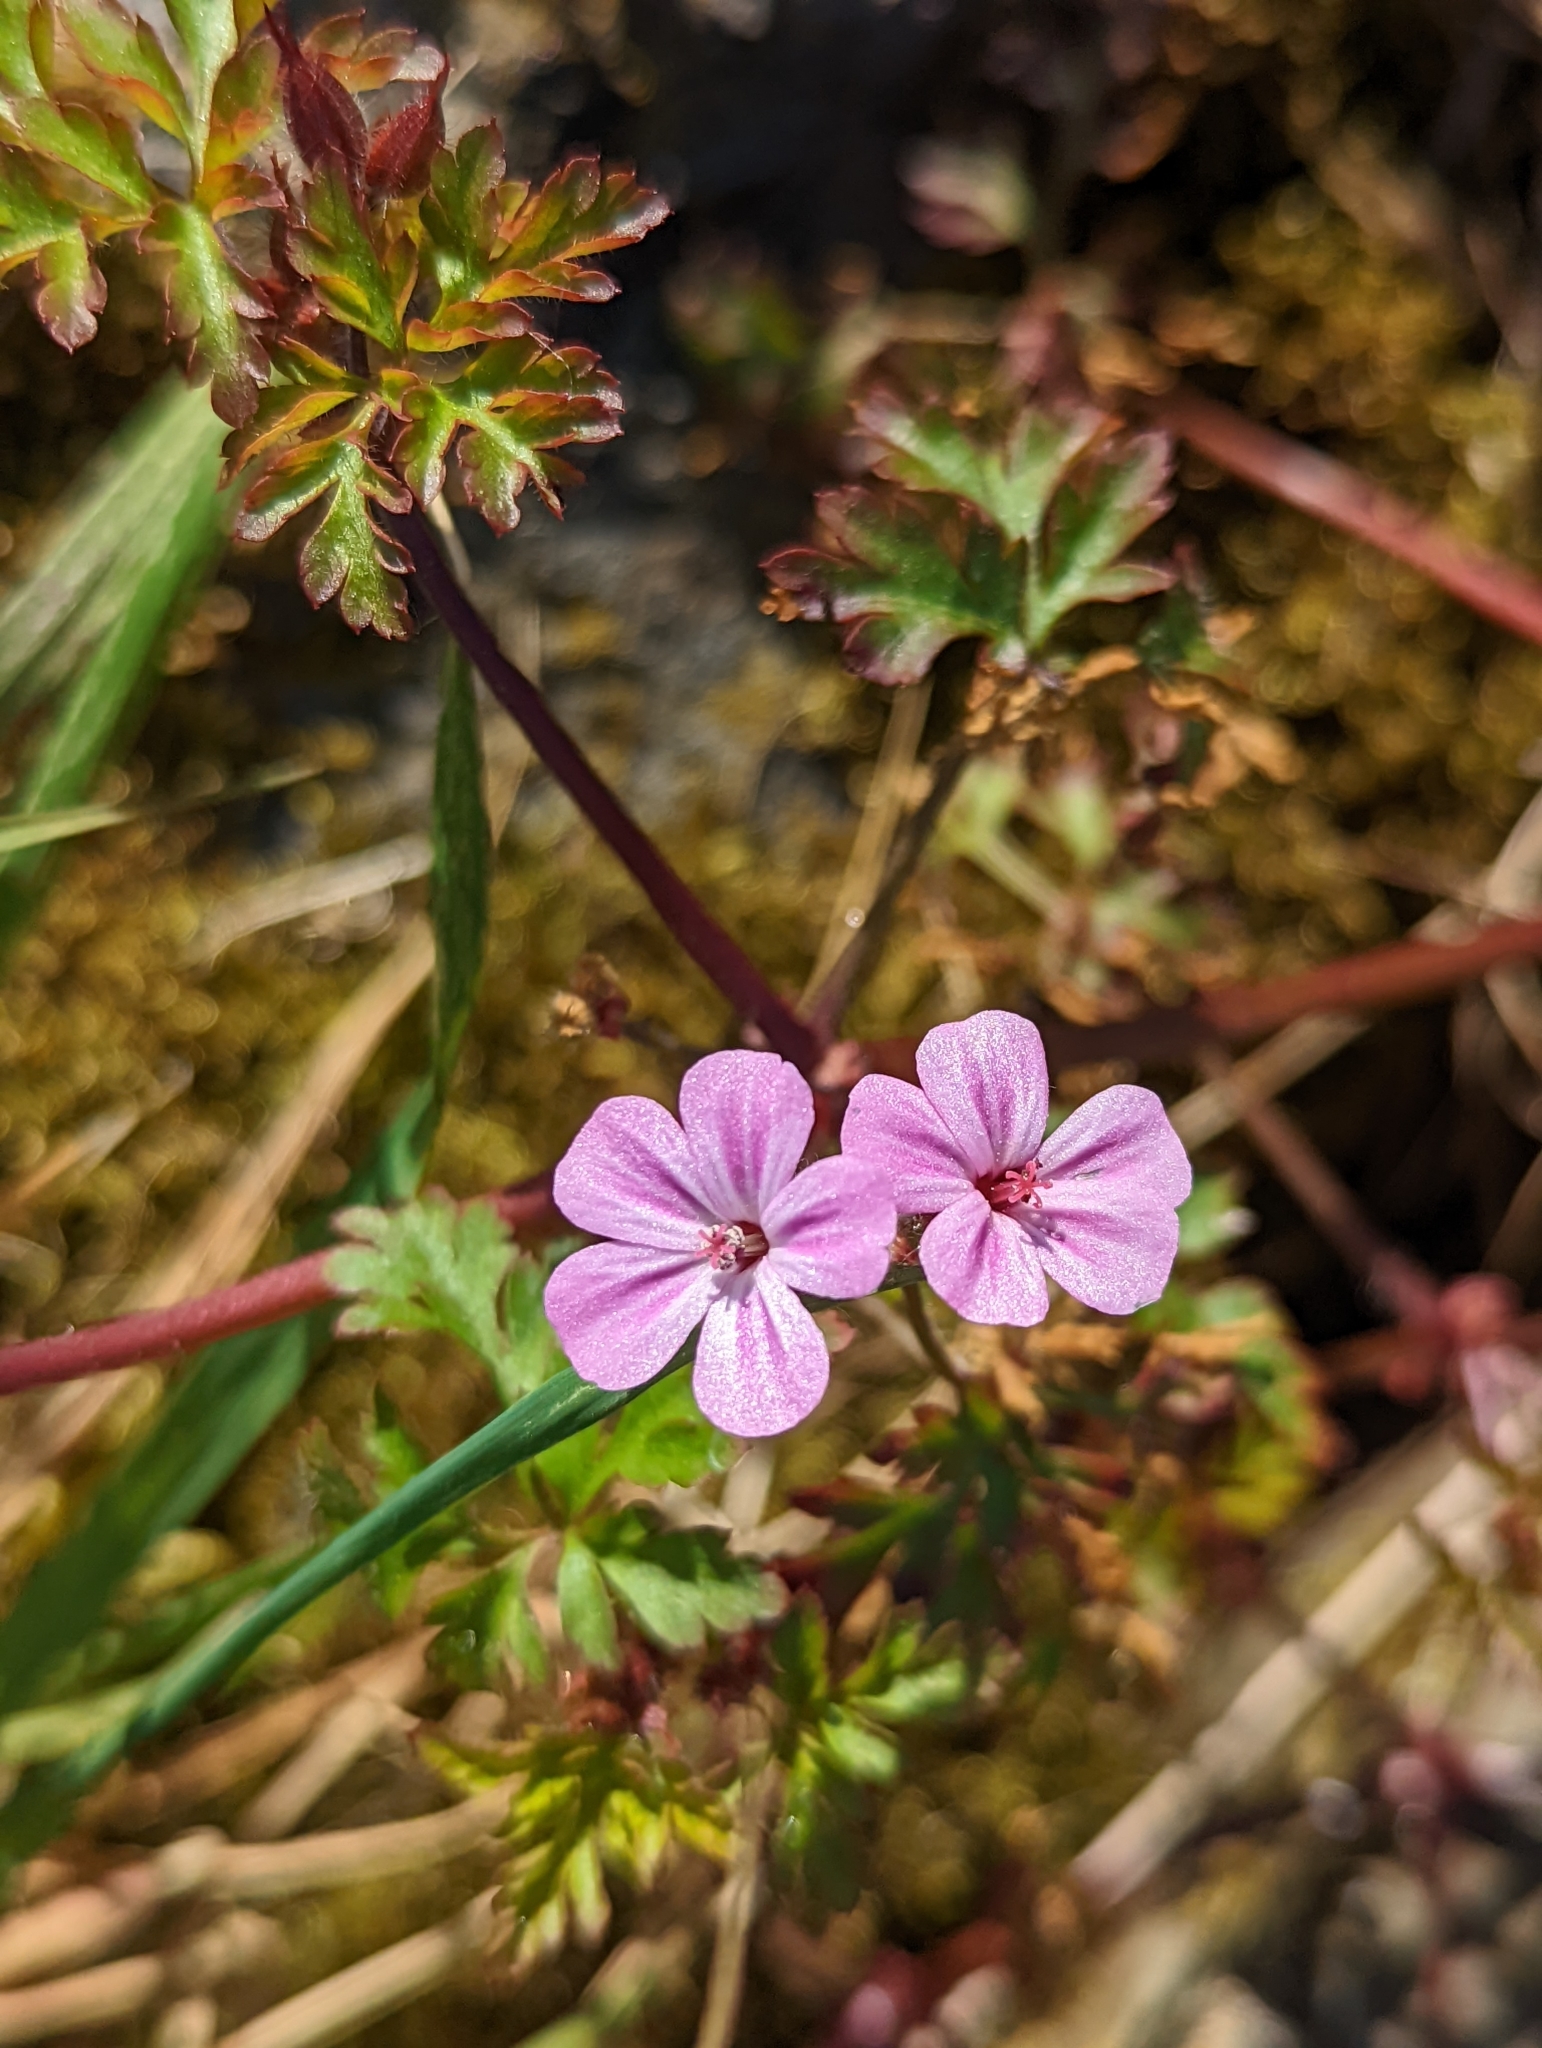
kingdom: Plantae
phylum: Tracheophyta
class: Magnoliopsida
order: Geraniales
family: Geraniaceae
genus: Geranium
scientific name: Geranium robertianum
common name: Herb-robert
